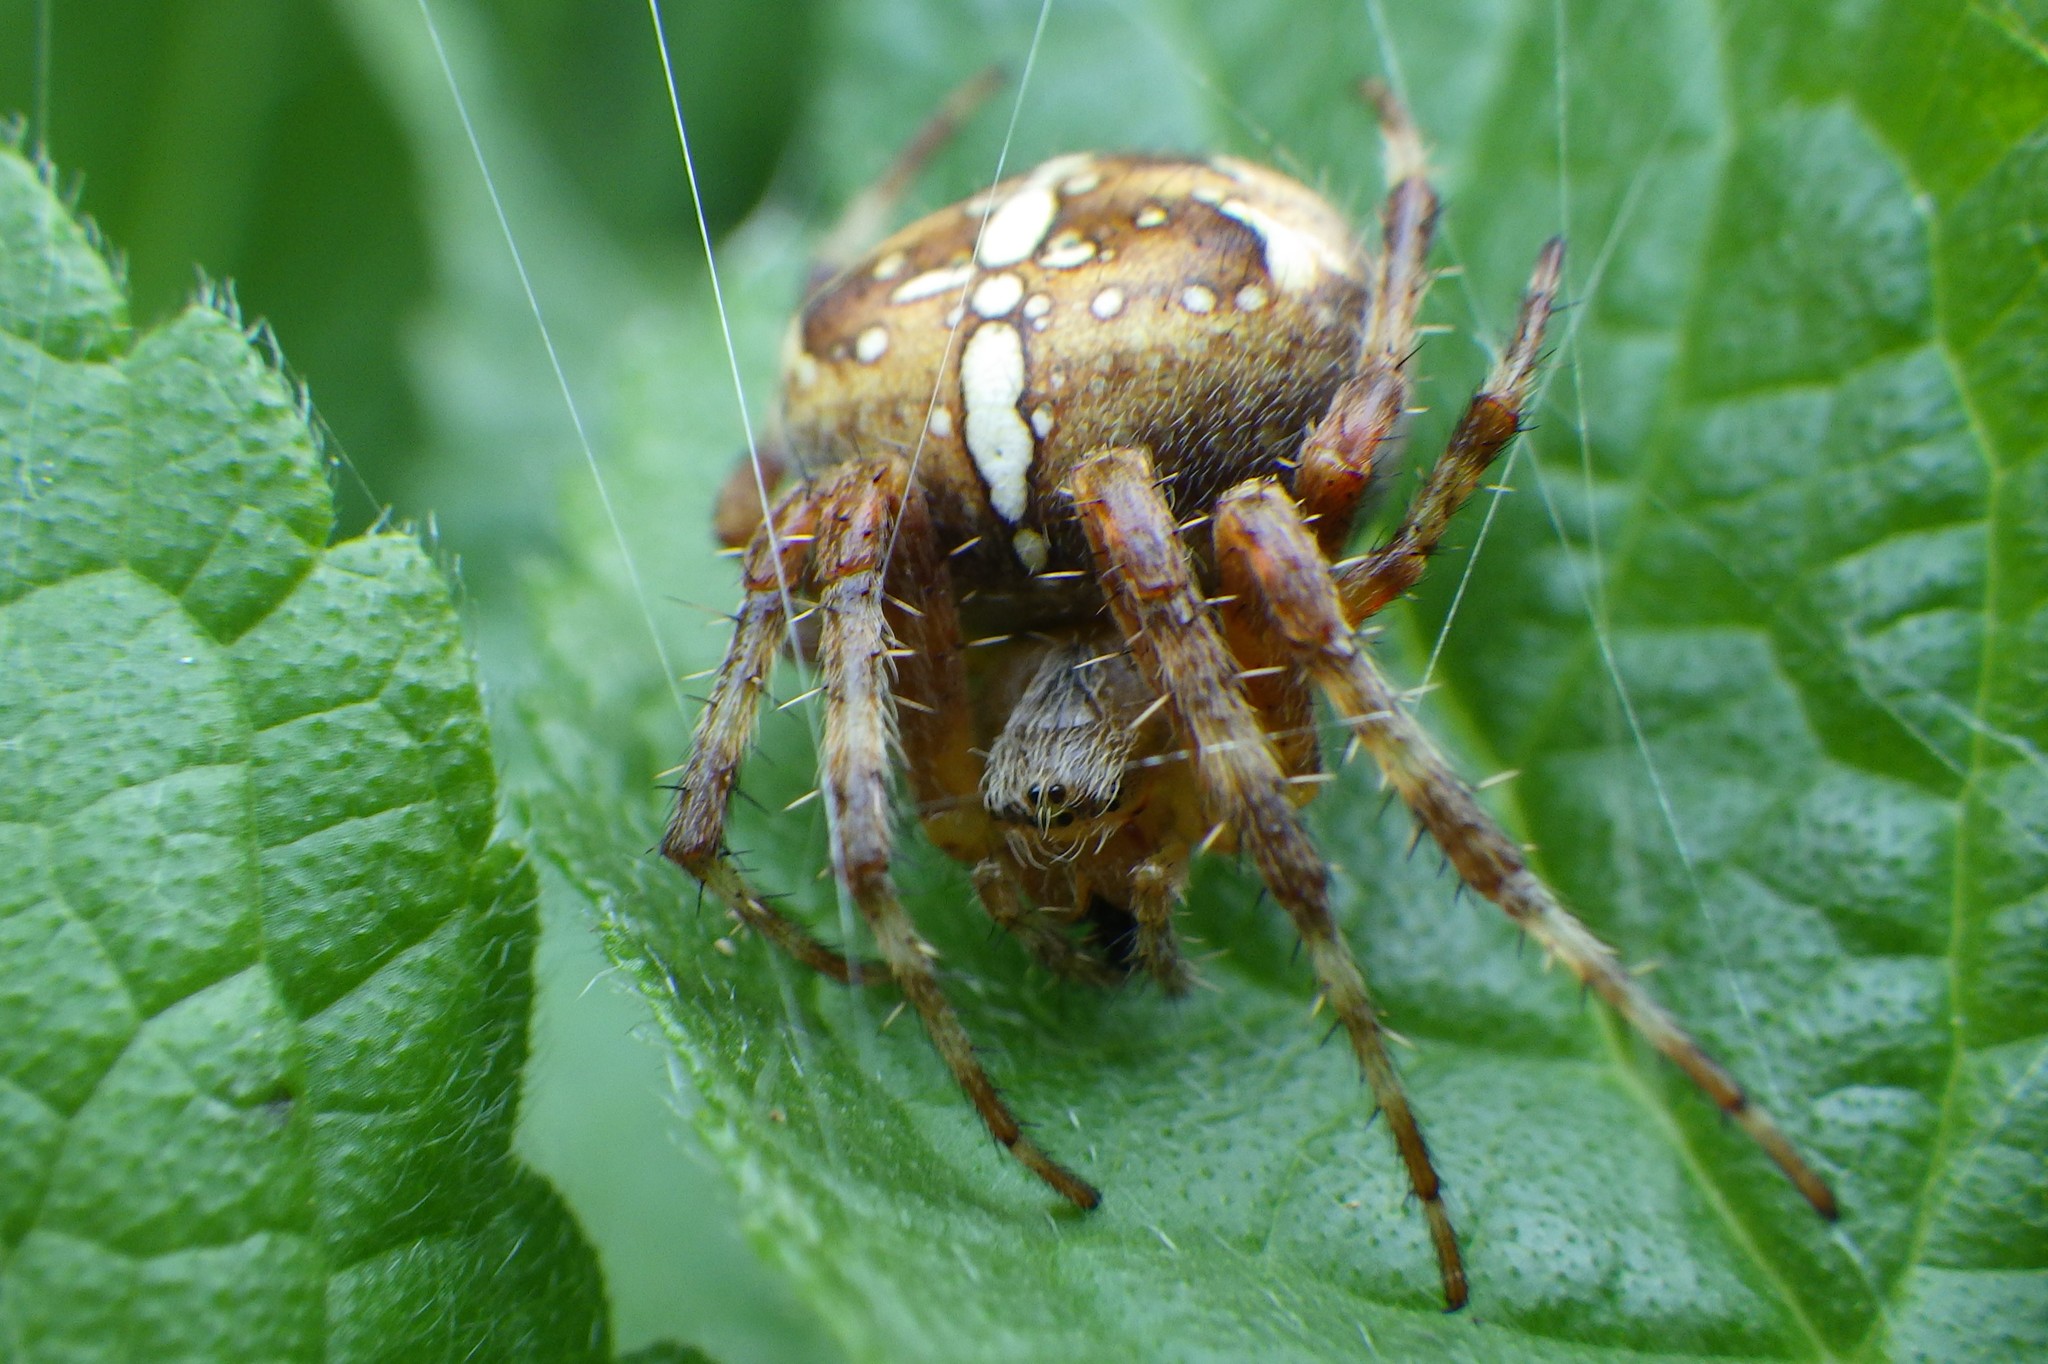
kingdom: Animalia
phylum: Arthropoda
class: Arachnida
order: Araneae
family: Araneidae
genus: Araneus
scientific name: Araneus diadematus
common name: Cross orbweaver
